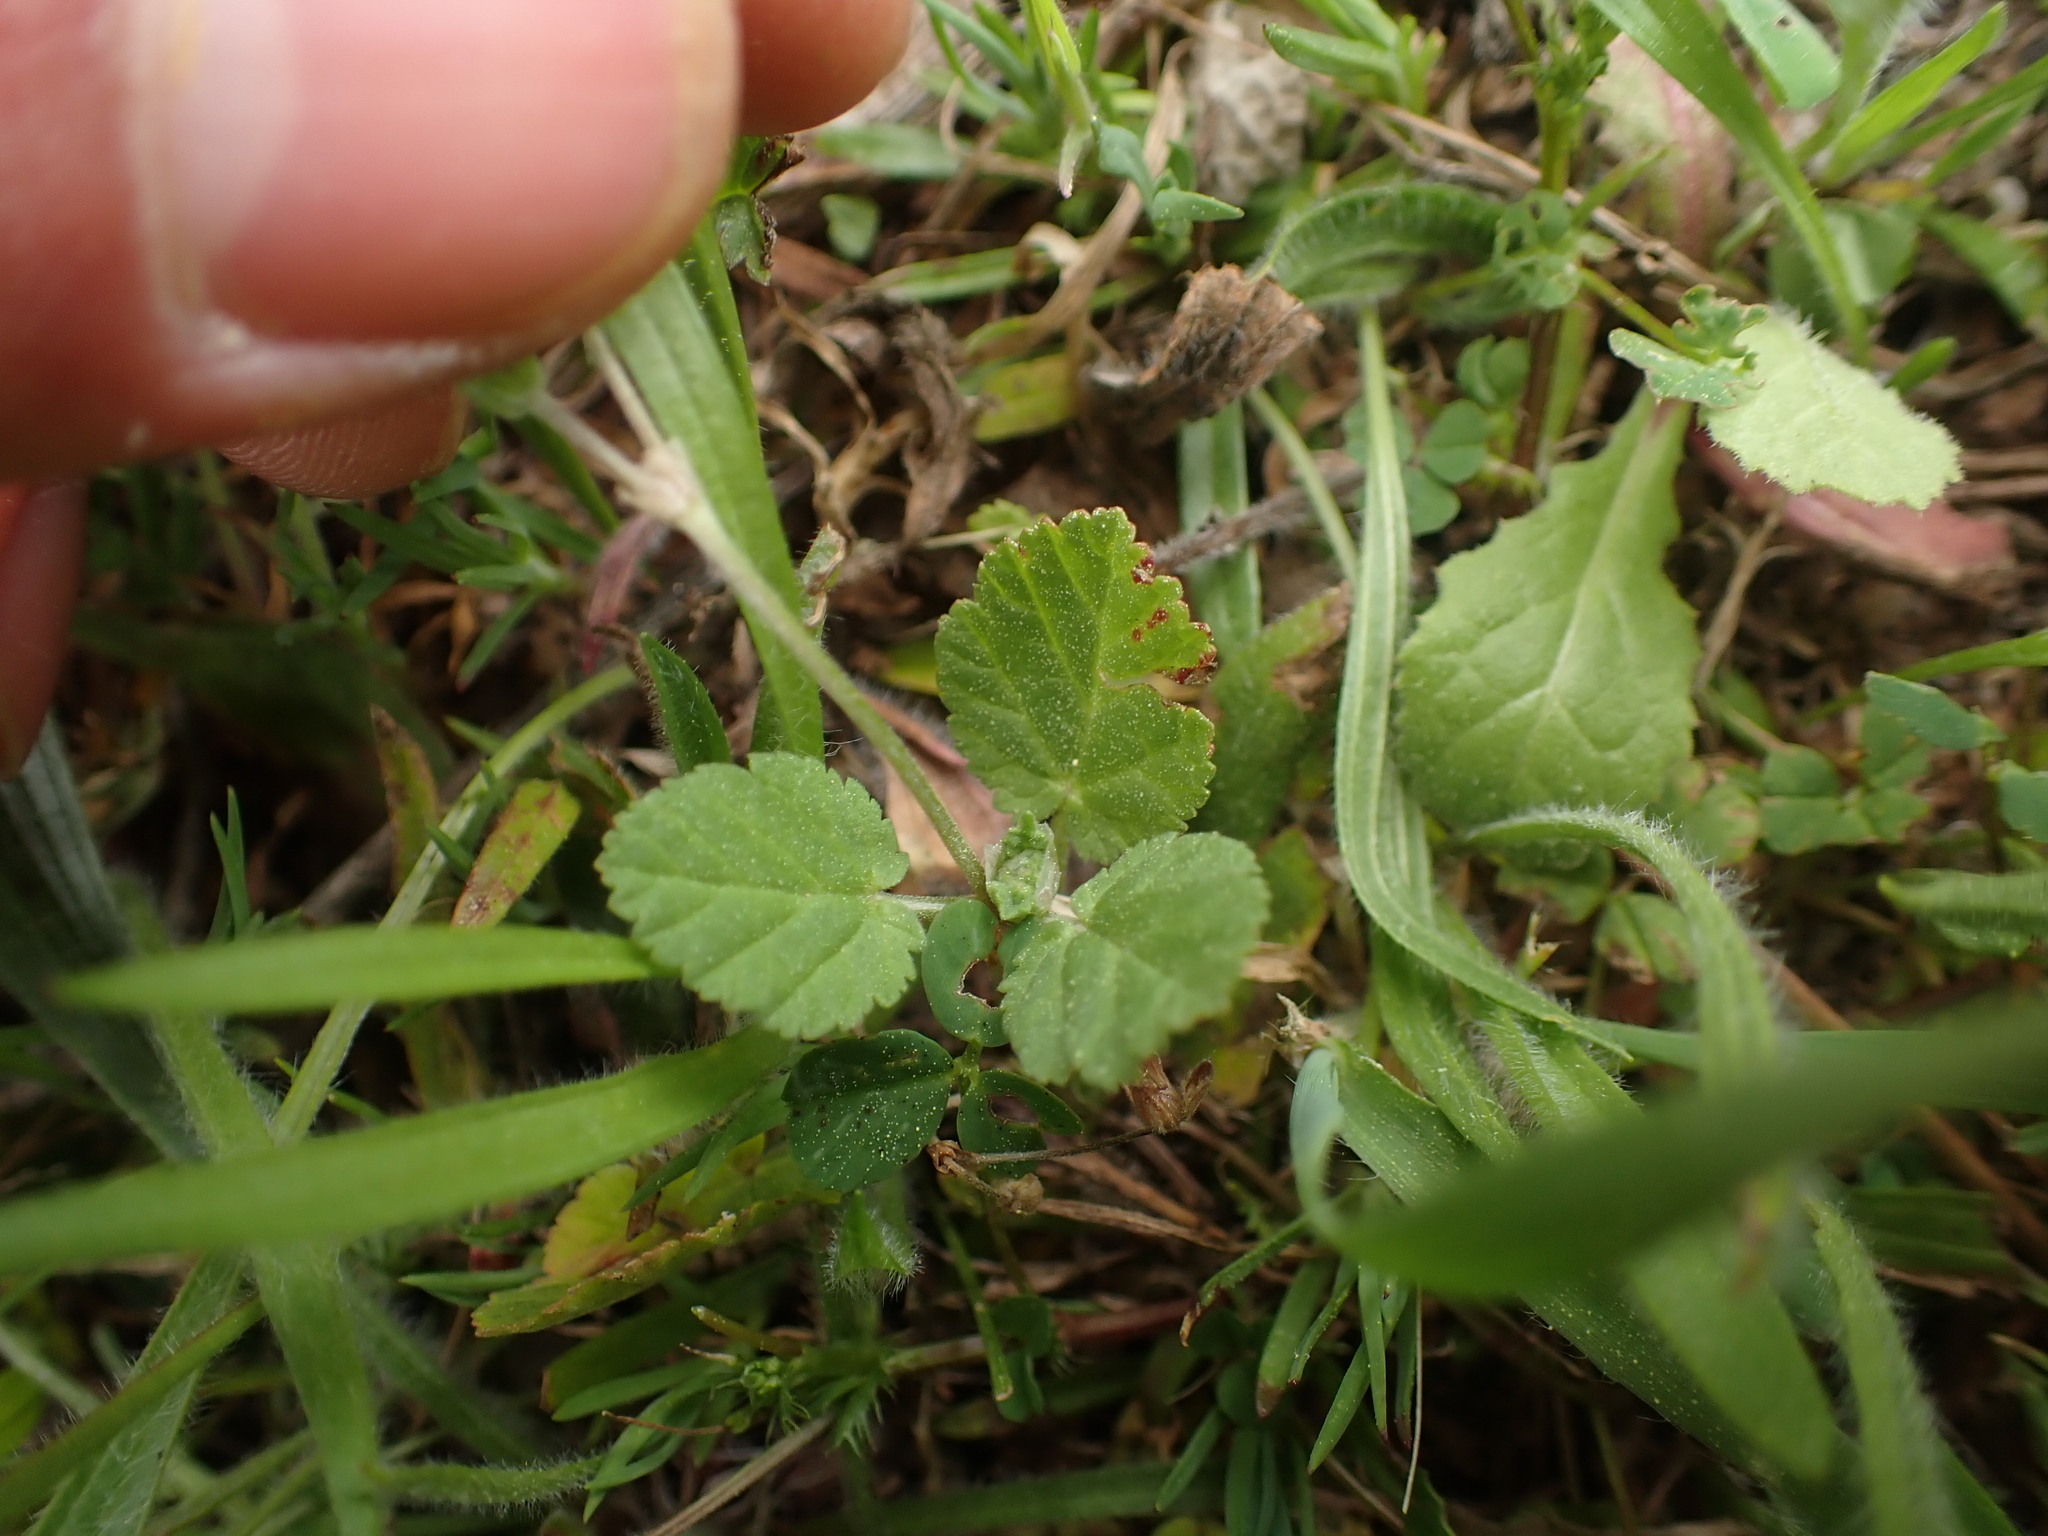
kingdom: Plantae
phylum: Tracheophyta
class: Magnoliopsida
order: Geraniales
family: Geraniaceae
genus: Erodium
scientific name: Erodium malacoides
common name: Soft stork's-bill
